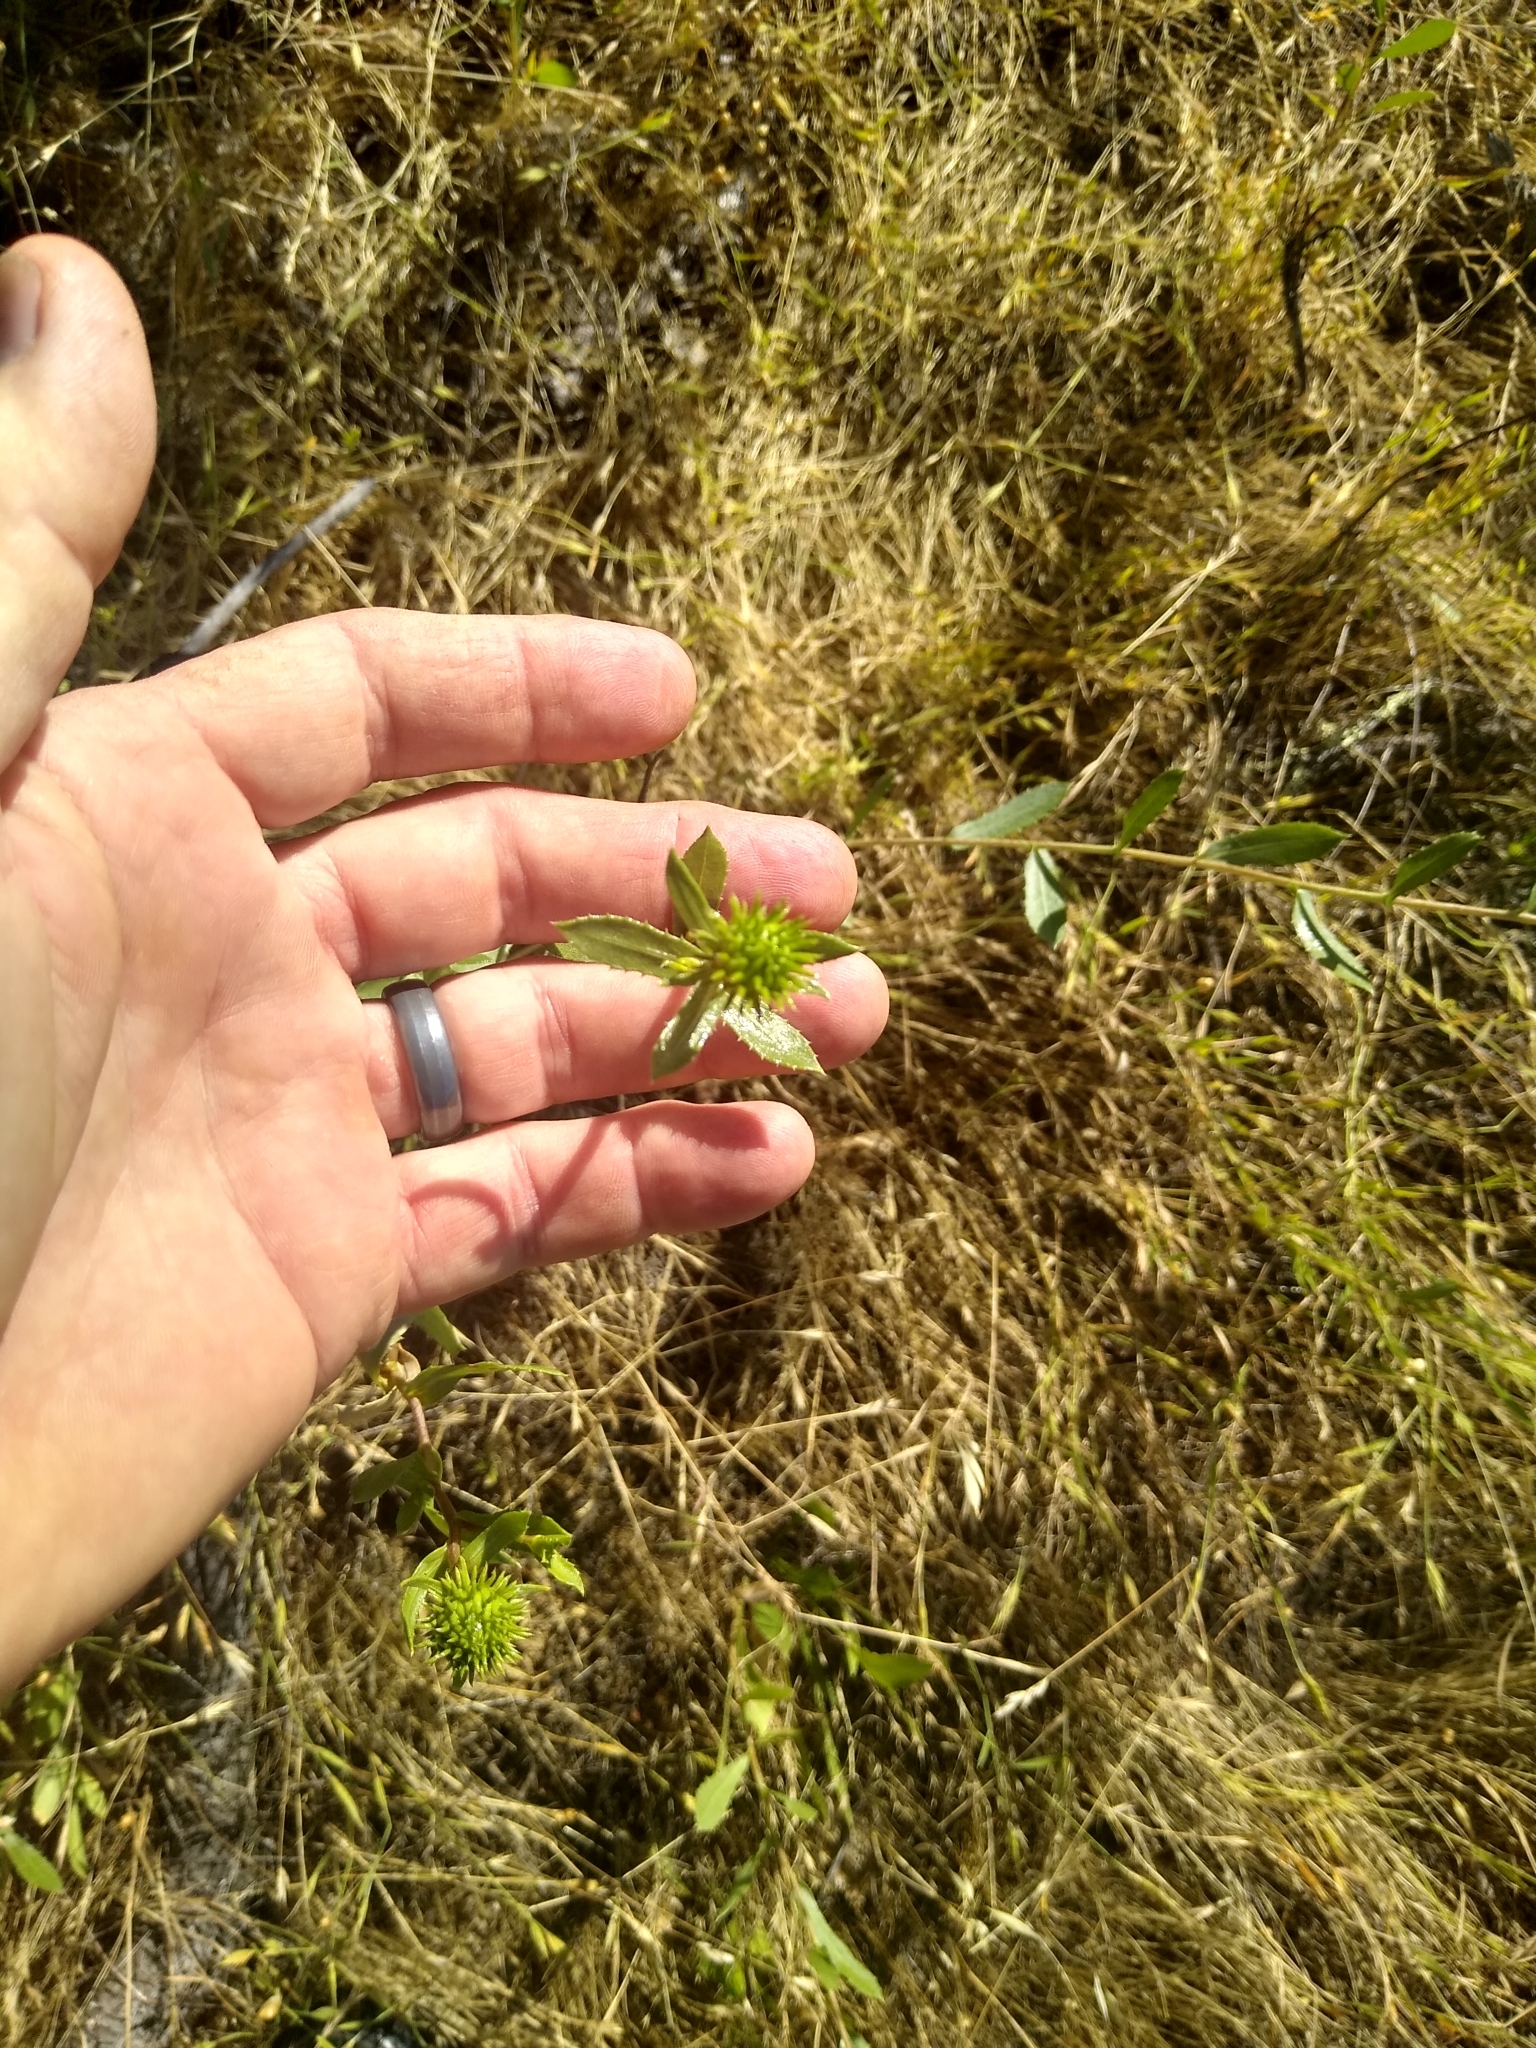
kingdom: Plantae
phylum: Tracheophyta
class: Magnoliopsida
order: Asterales
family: Asteraceae
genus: Grindelia
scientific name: Grindelia hirsutula
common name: Hairy gumweed
